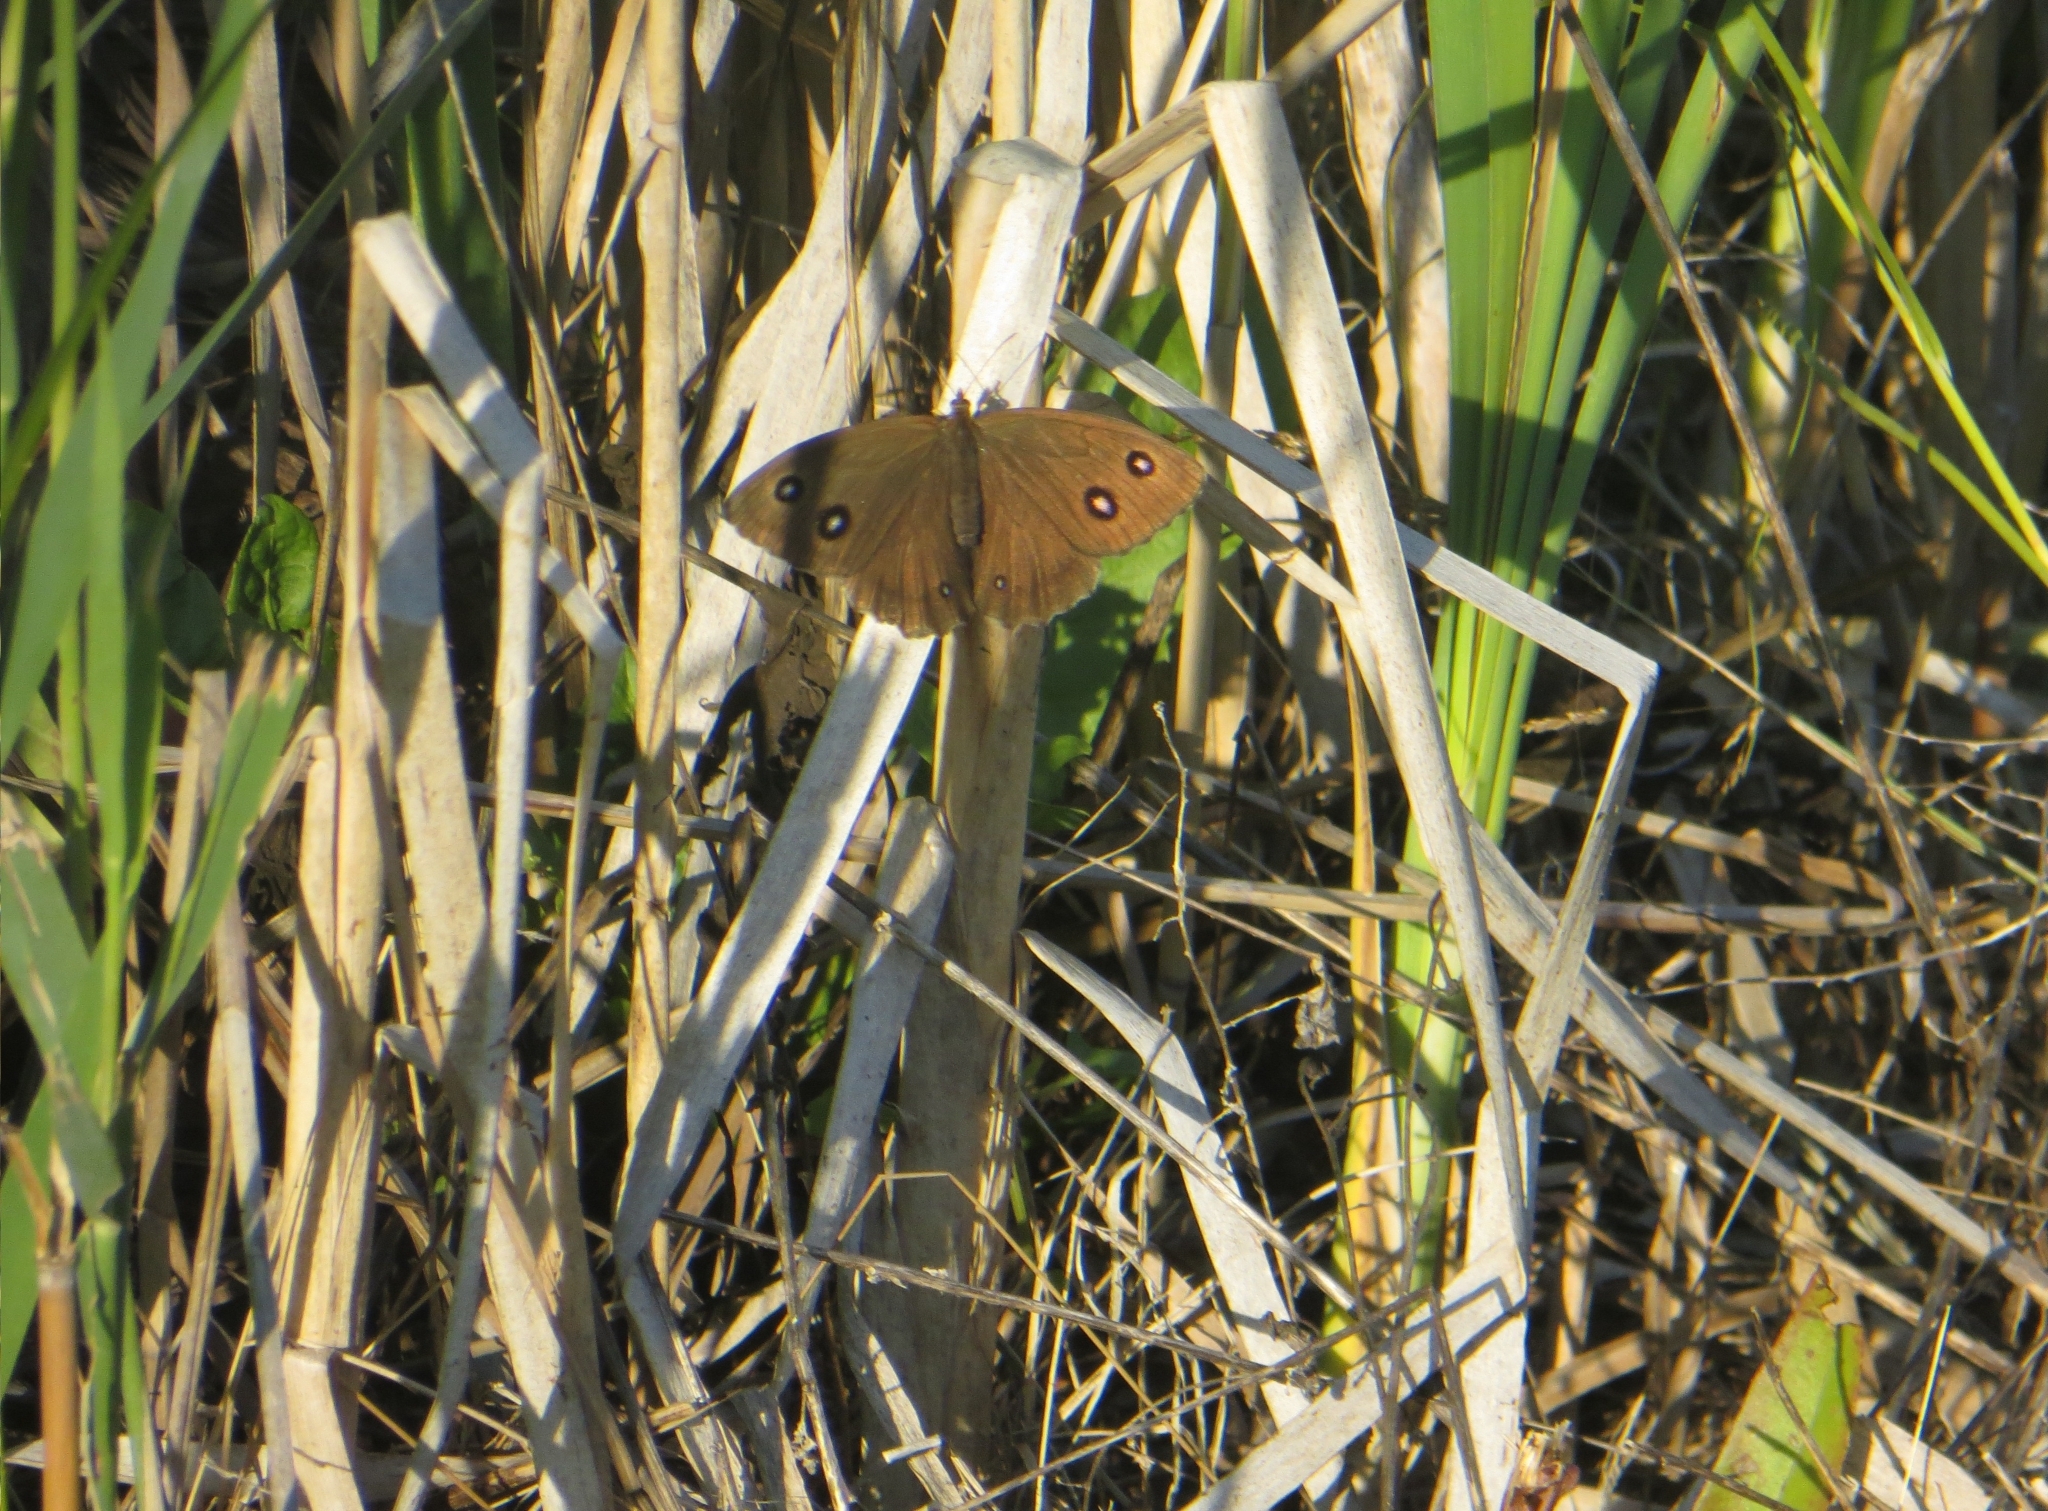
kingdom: Animalia
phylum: Arthropoda
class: Insecta
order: Lepidoptera
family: Nymphalidae
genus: Minois
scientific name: Minois dryas
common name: Dryad
